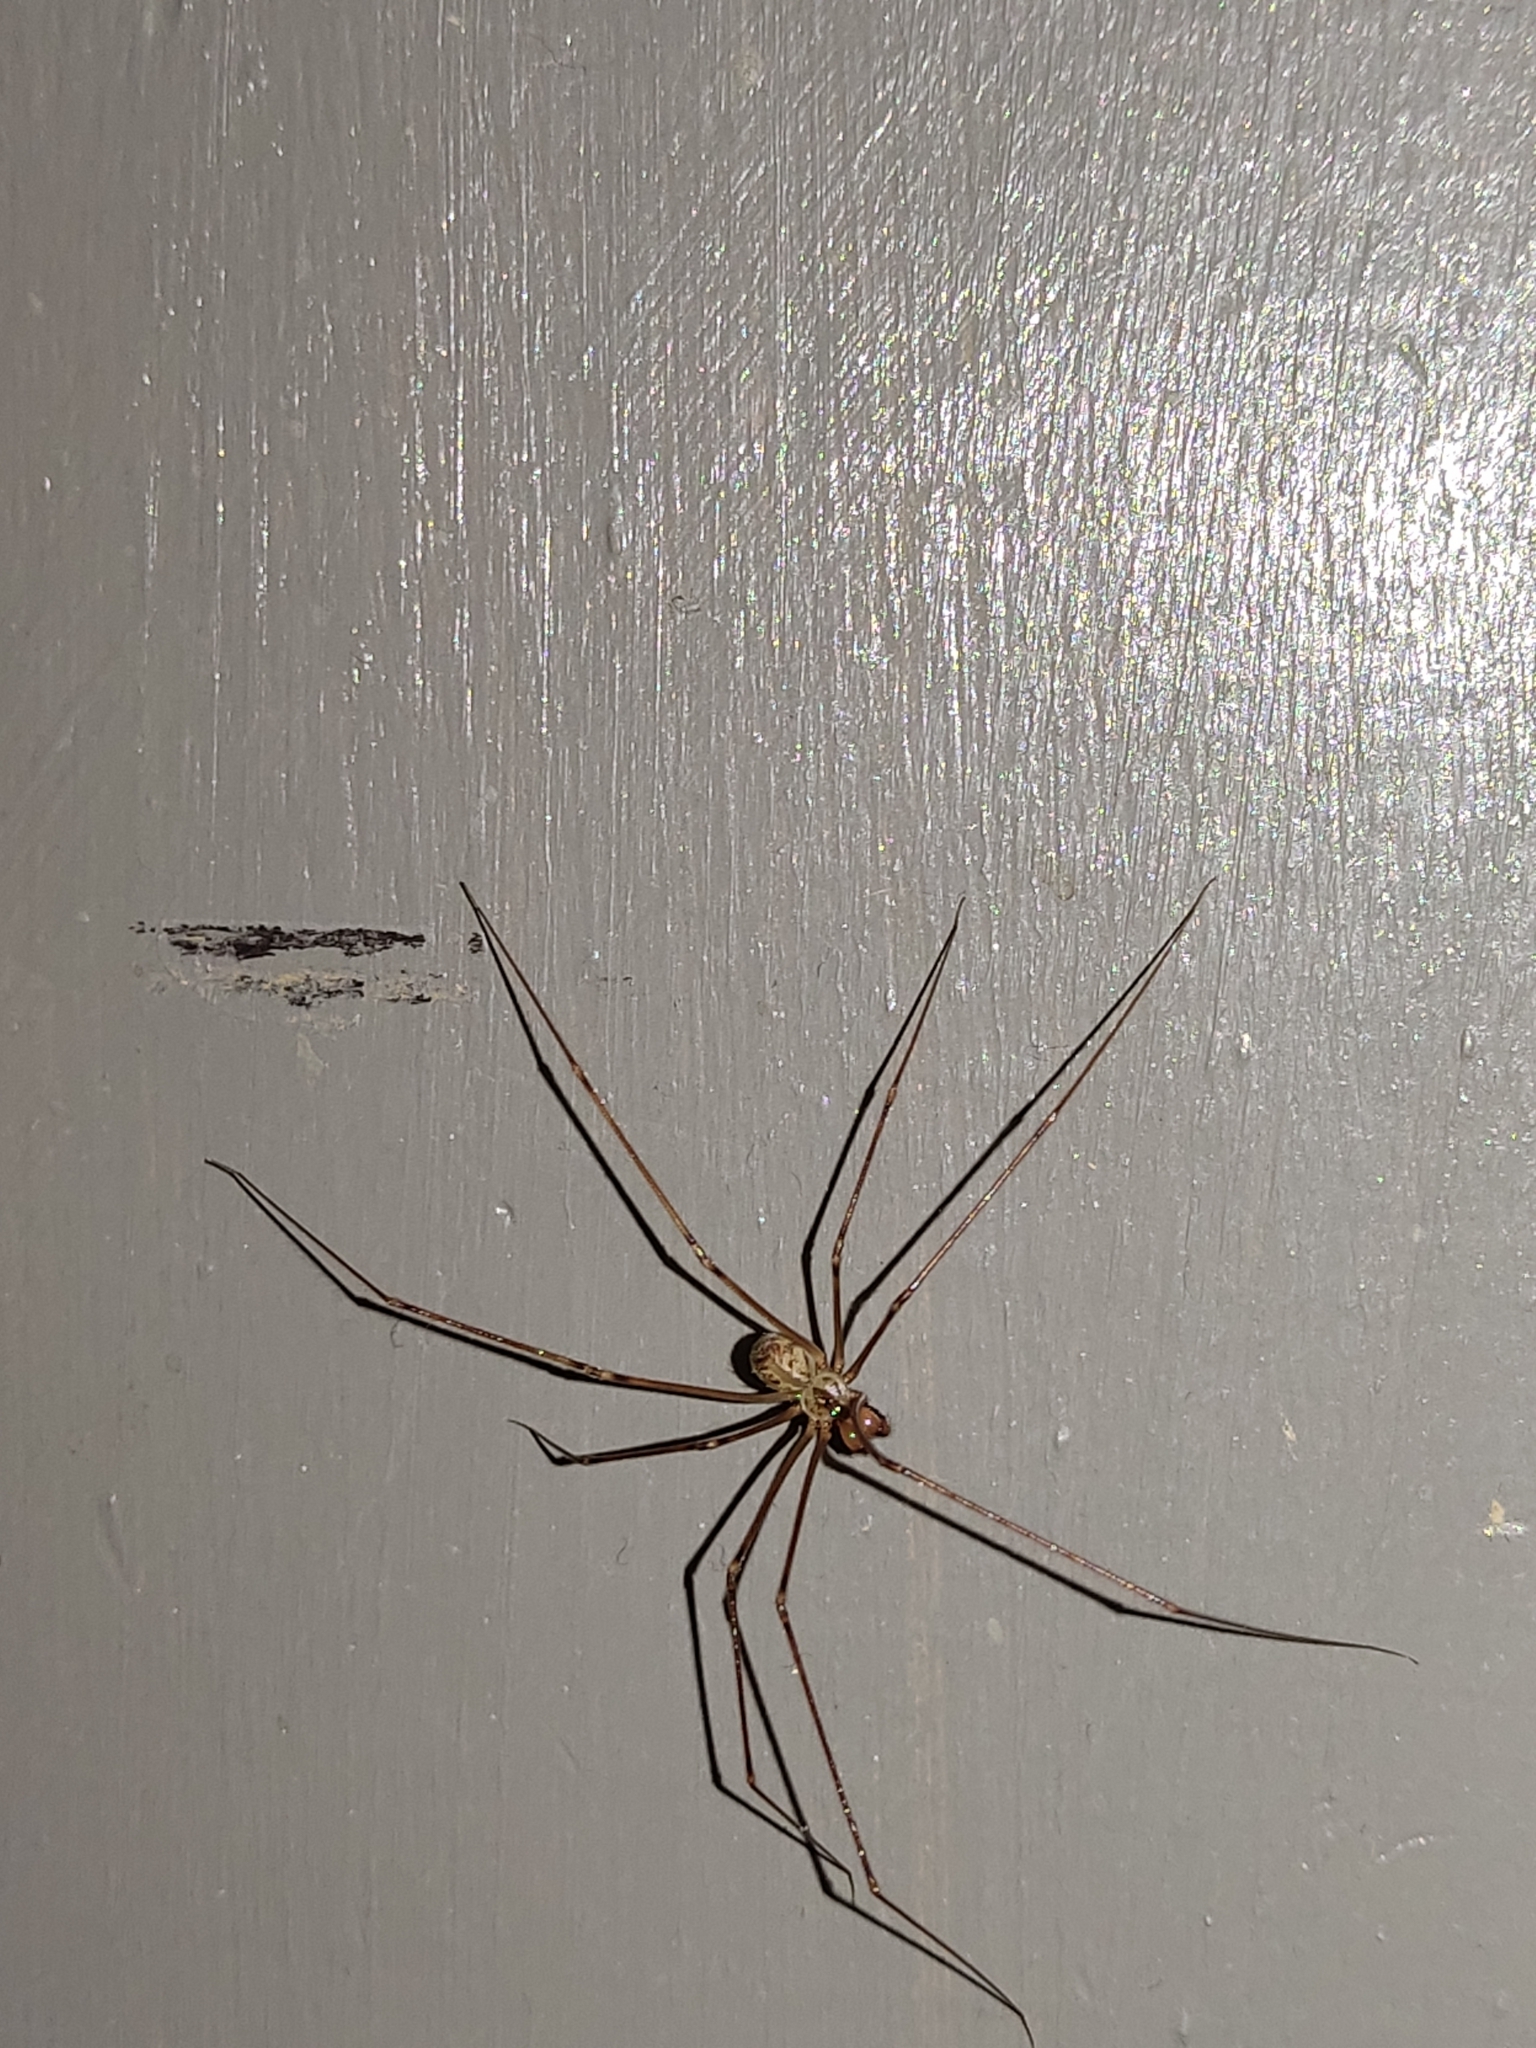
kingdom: Animalia
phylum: Arthropoda
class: Arachnida
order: Araneae
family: Pholcidae
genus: Physocyclus
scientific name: Physocyclus globosus
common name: Cellar spiders
